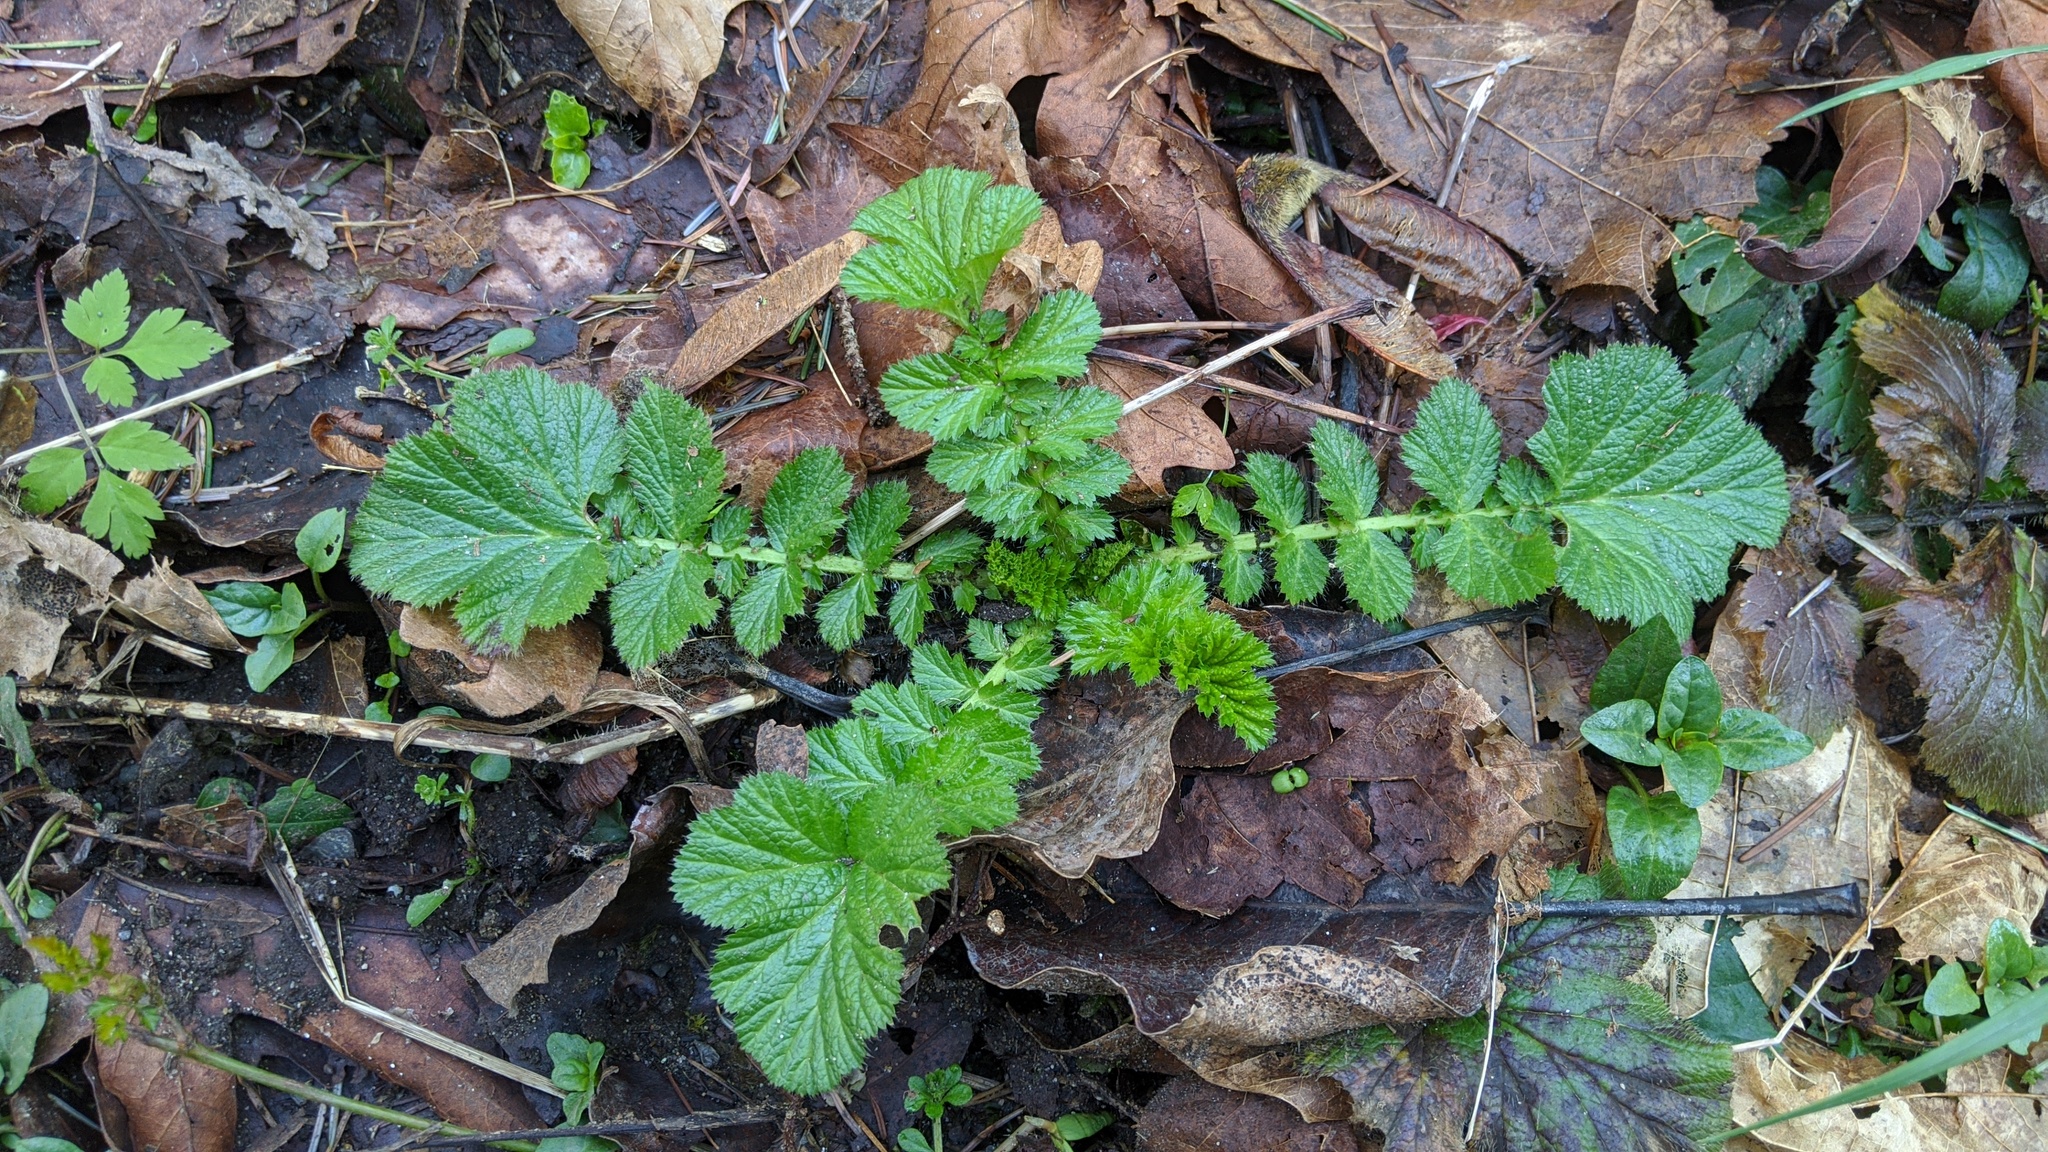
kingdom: Plantae
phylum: Tracheophyta
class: Magnoliopsida
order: Rosales
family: Rosaceae
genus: Geum
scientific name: Geum macrophyllum
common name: Large-leaved avens
